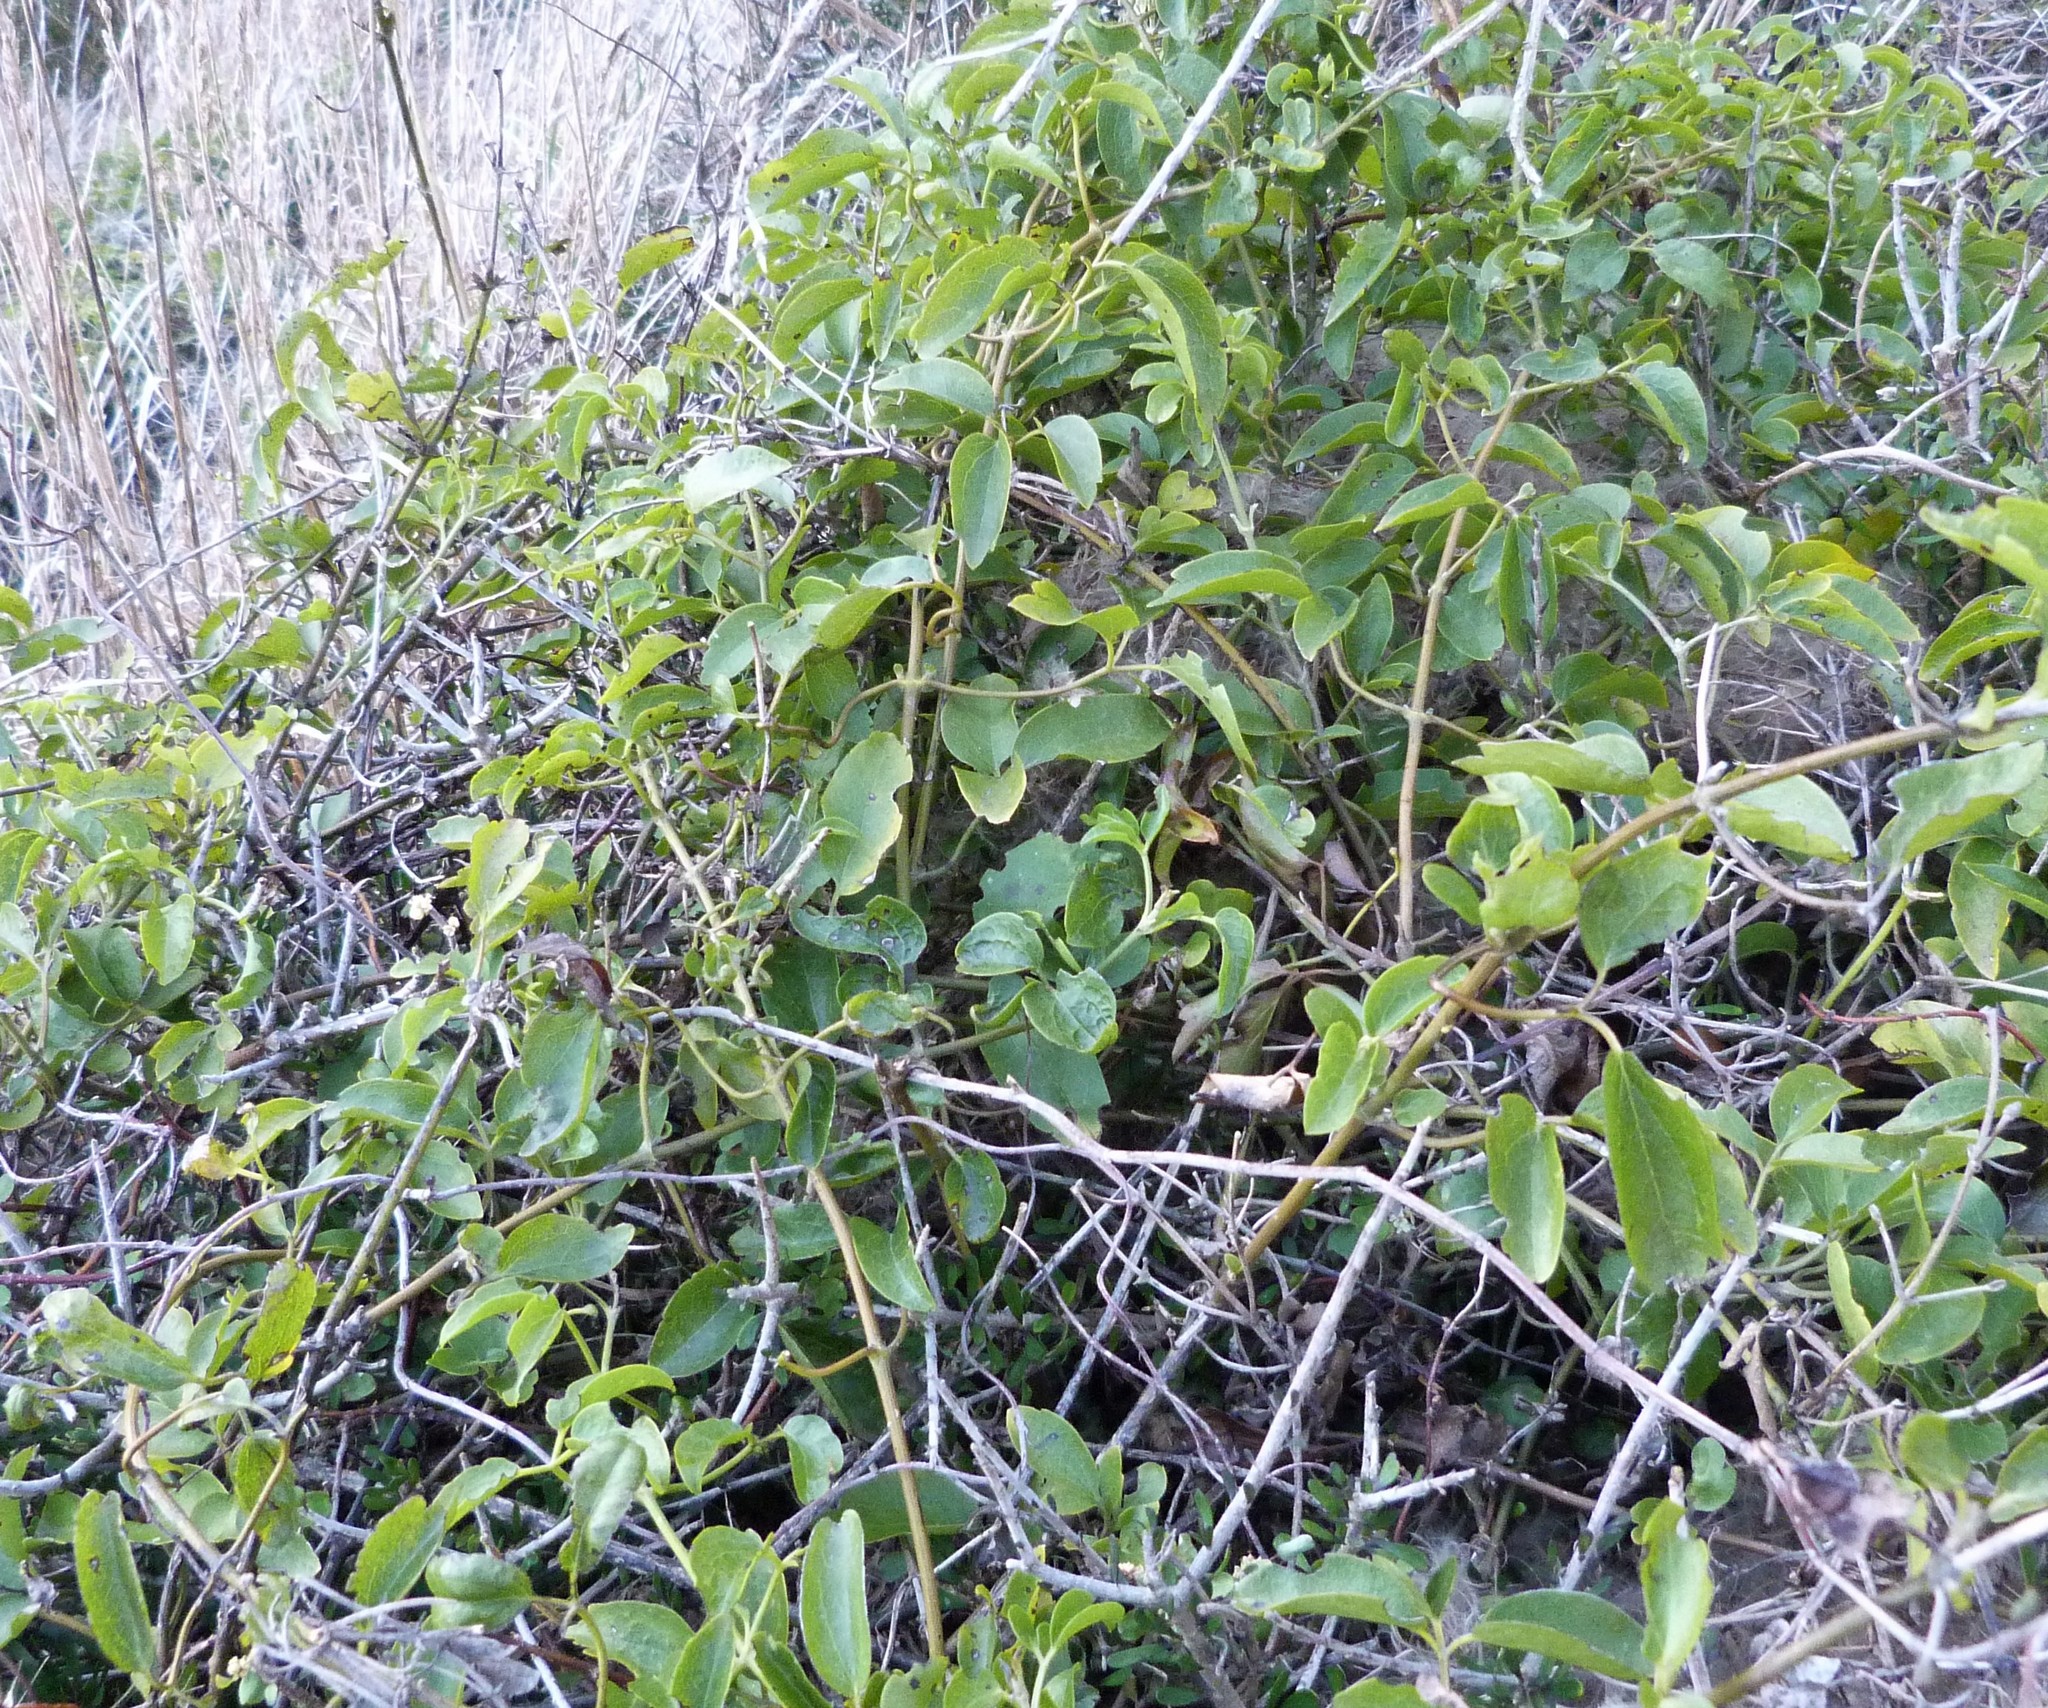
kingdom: Plantae
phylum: Tracheophyta
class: Magnoliopsida
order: Ranunculales
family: Ranunculaceae
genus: Clematis
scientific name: Clematis foetida
